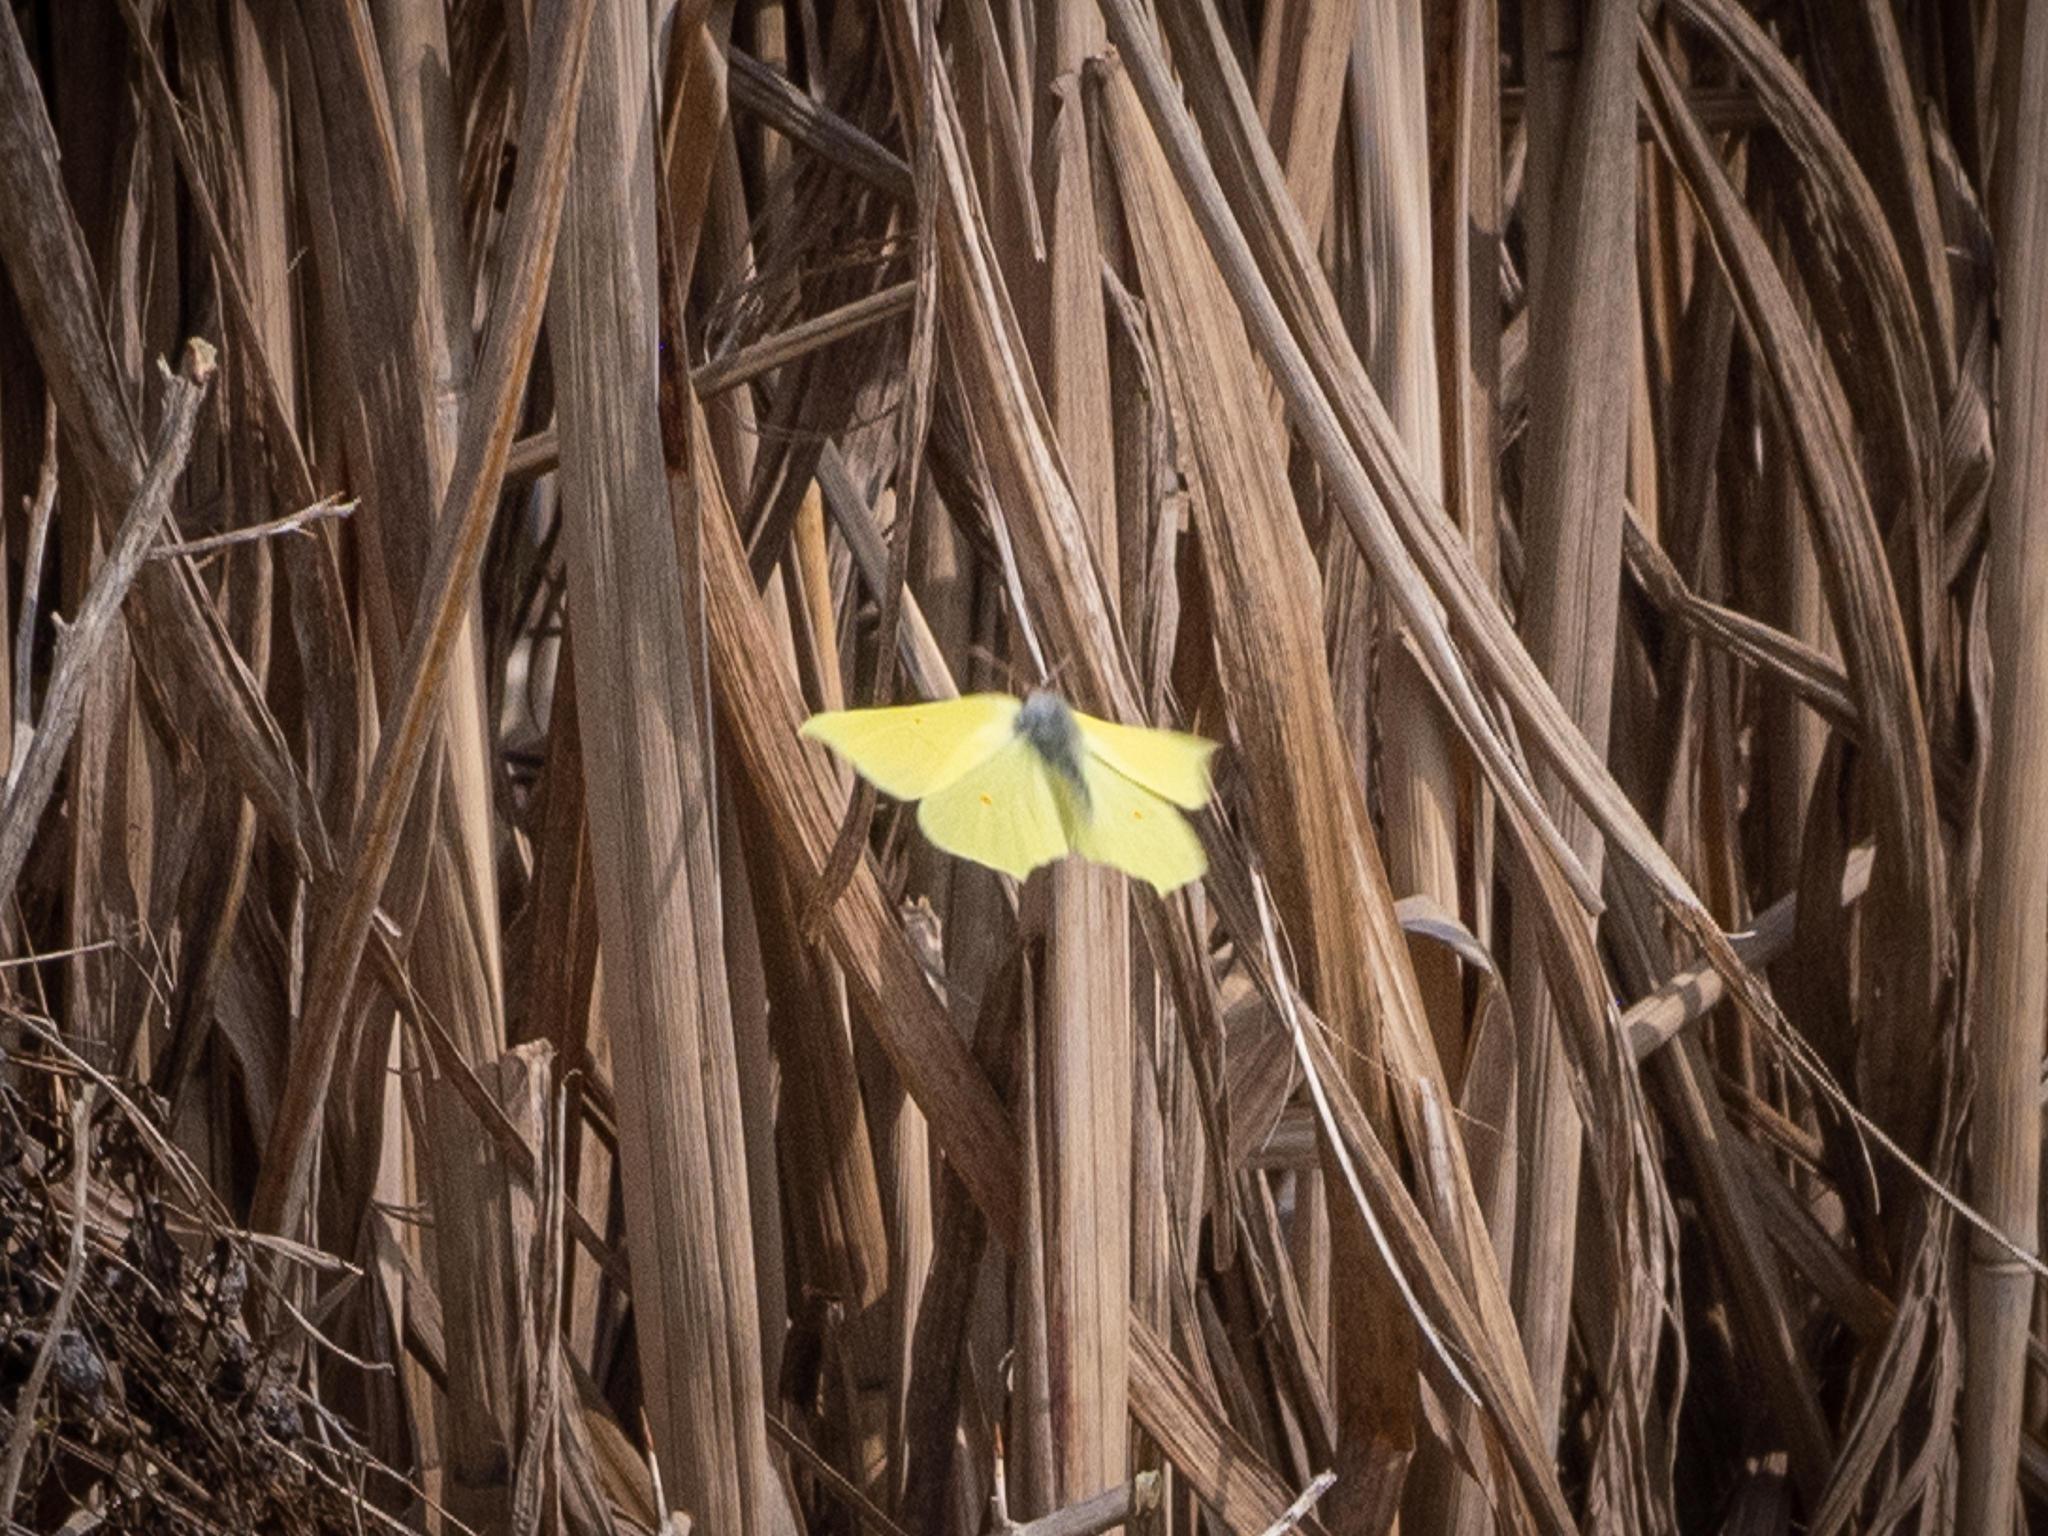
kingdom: Animalia
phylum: Arthropoda
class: Insecta
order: Lepidoptera
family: Pieridae
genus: Gonepteryx
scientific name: Gonepteryx rhamni
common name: Brimstone
